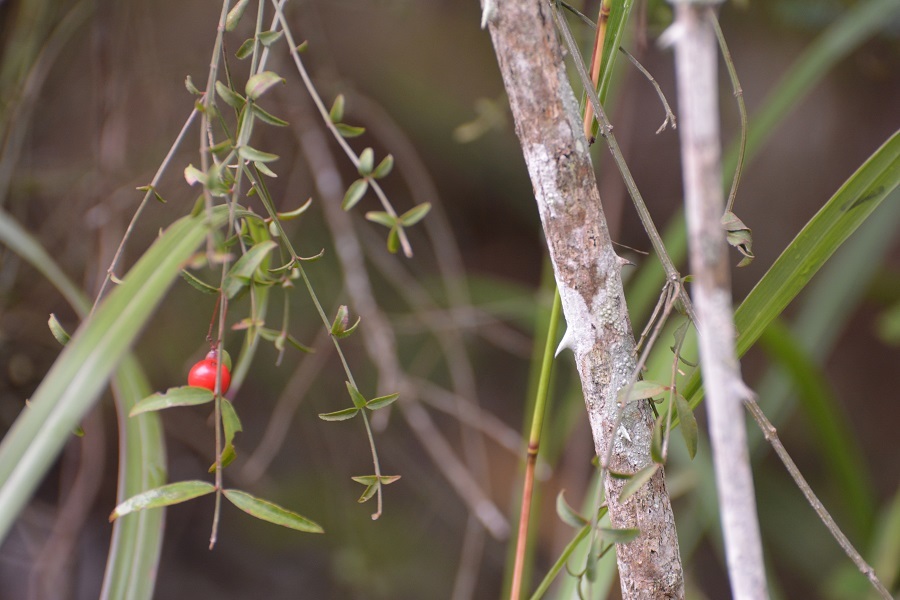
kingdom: Plantae
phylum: Tracheophyta
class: Magnoliopsida
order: Celastrales
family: Celastraceae
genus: Crossopetalum
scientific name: Crossopetalum uragoga
